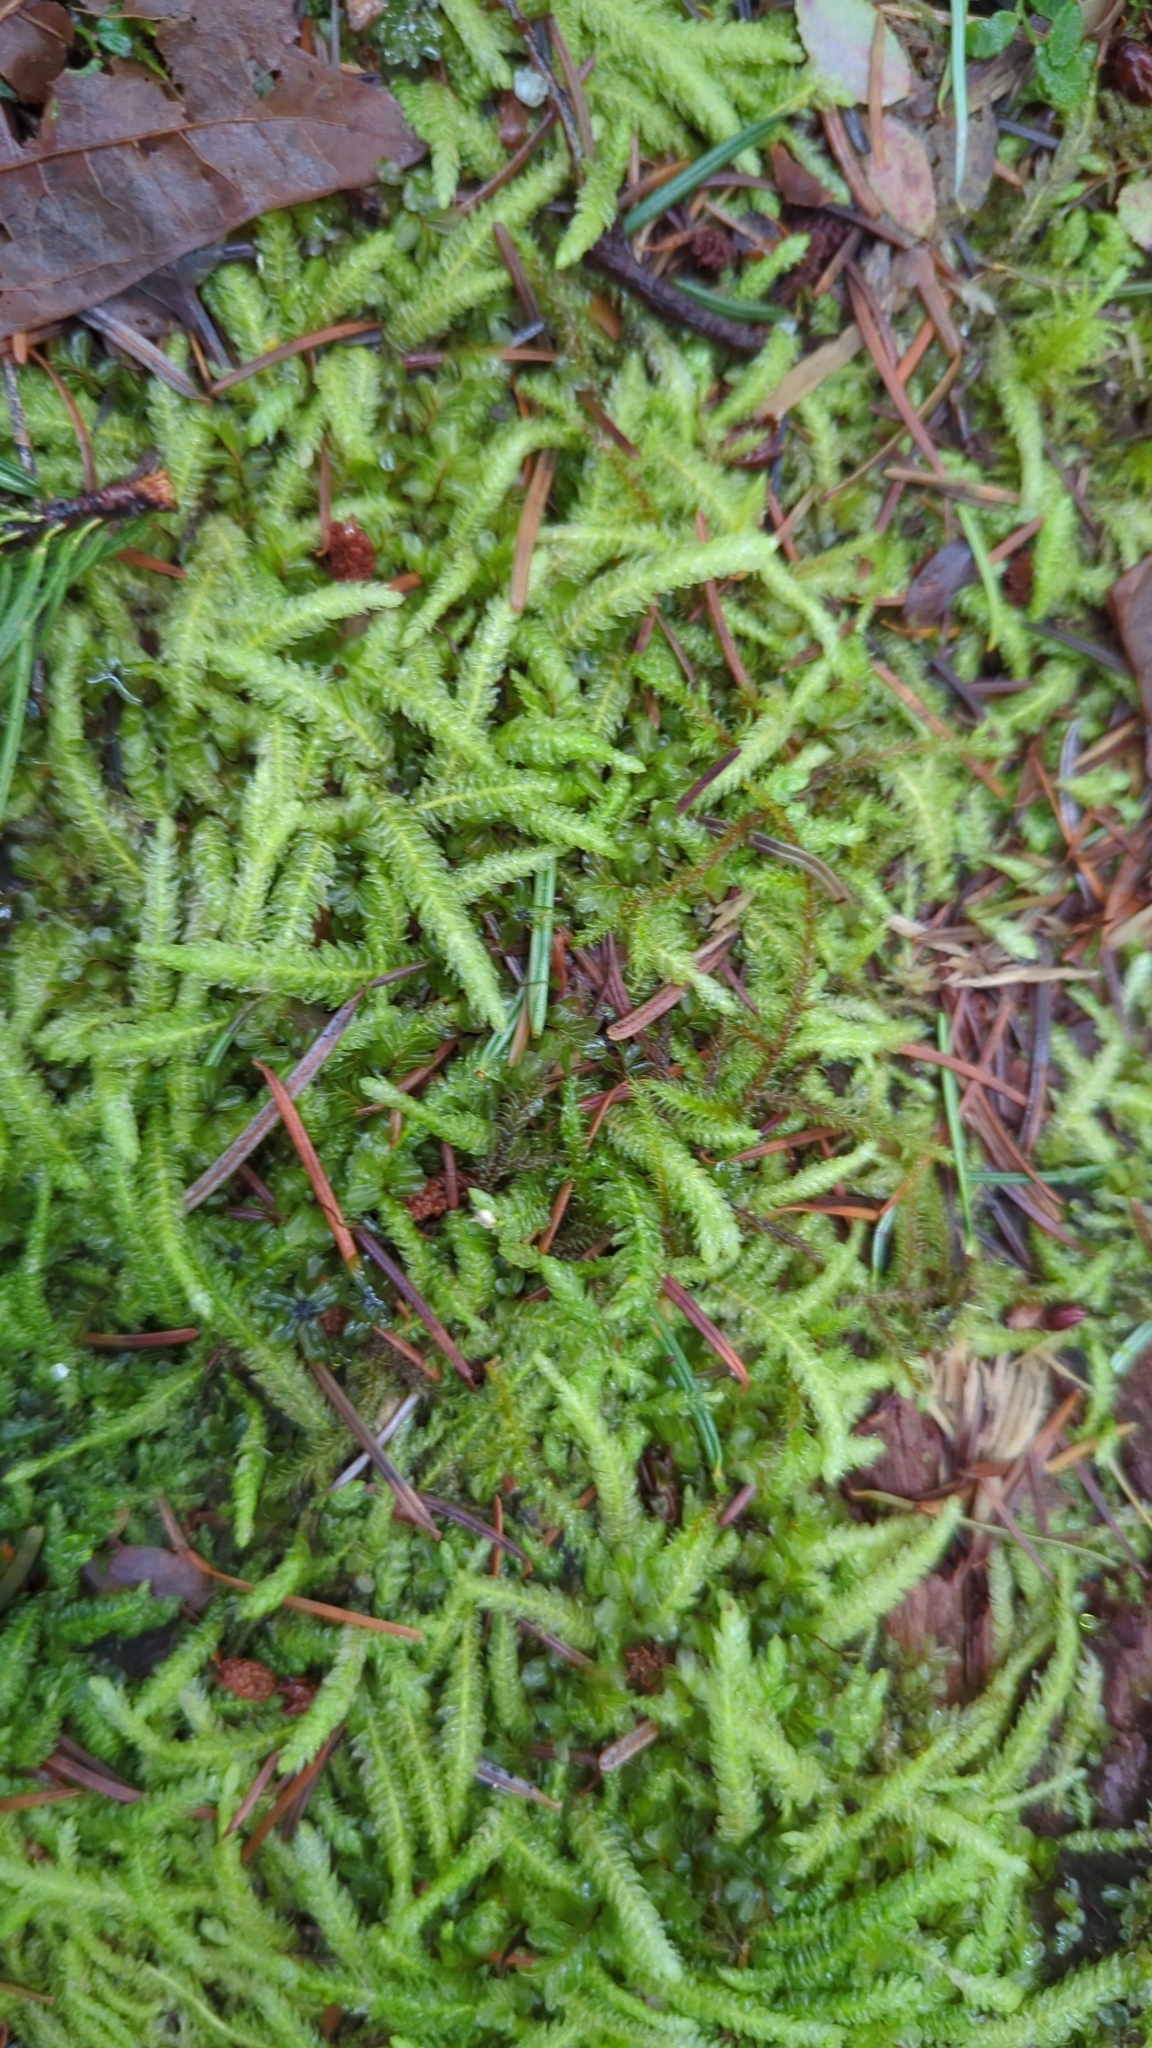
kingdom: Plantae
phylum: Bryophyta
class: Bryopsida
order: Hypnales
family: Plagiotheciaceae
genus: Plagiothecium
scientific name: Plagiothecium undulatum
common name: Waved silk-moss
